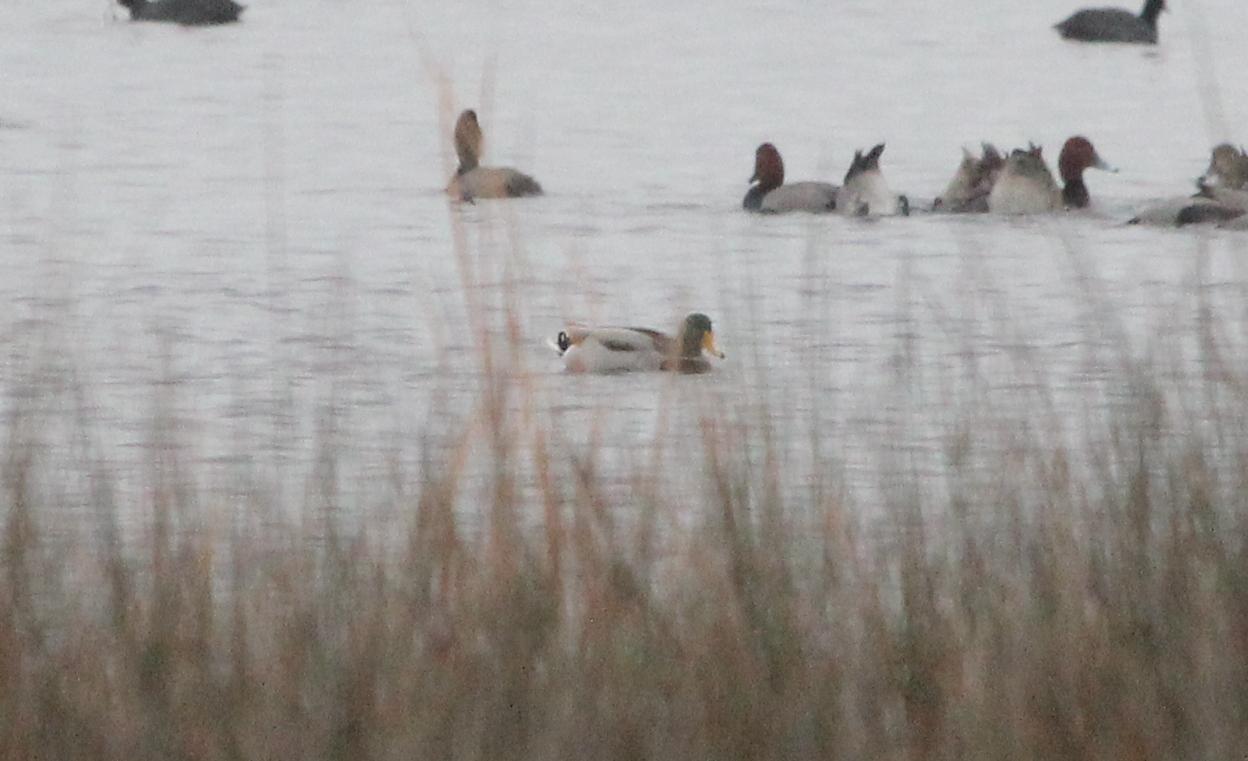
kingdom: Animalia
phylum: Chordata
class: Aves
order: Anseriformes
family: Anatidae
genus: Anas
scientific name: Anas platyrhynchos
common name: Mallard
